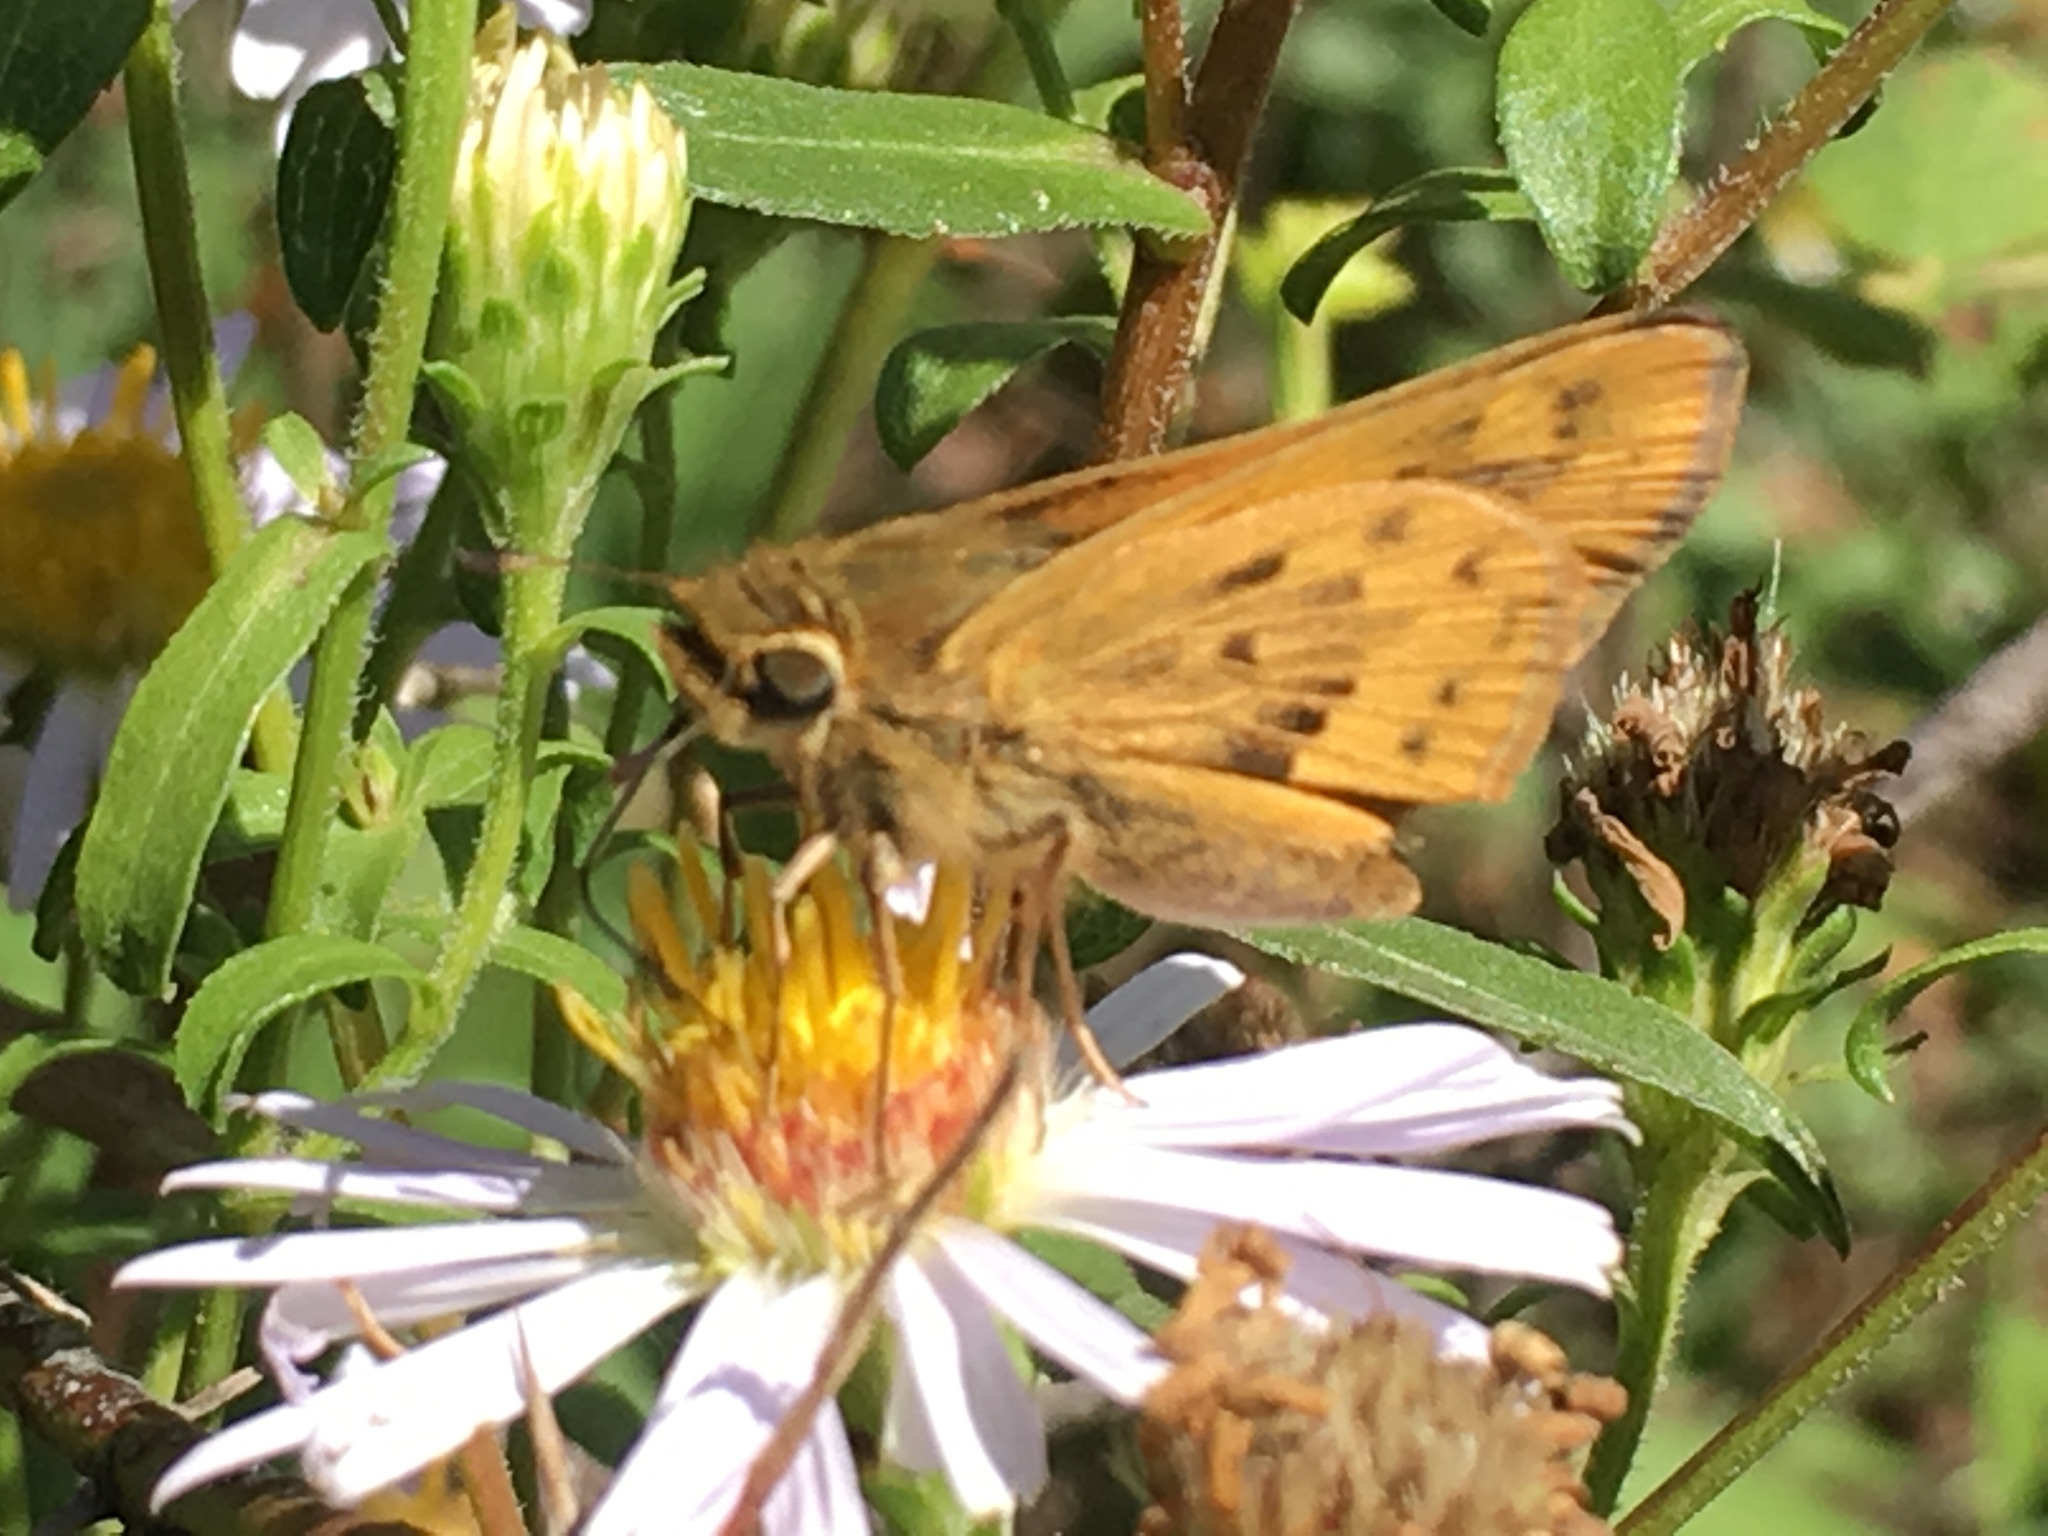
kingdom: Animalia
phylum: Arthropoda
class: Insecta
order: Lepidoptera
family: Hesperiidae
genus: Hylephila
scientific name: Hylephila phyleus
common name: Fiery skipper
